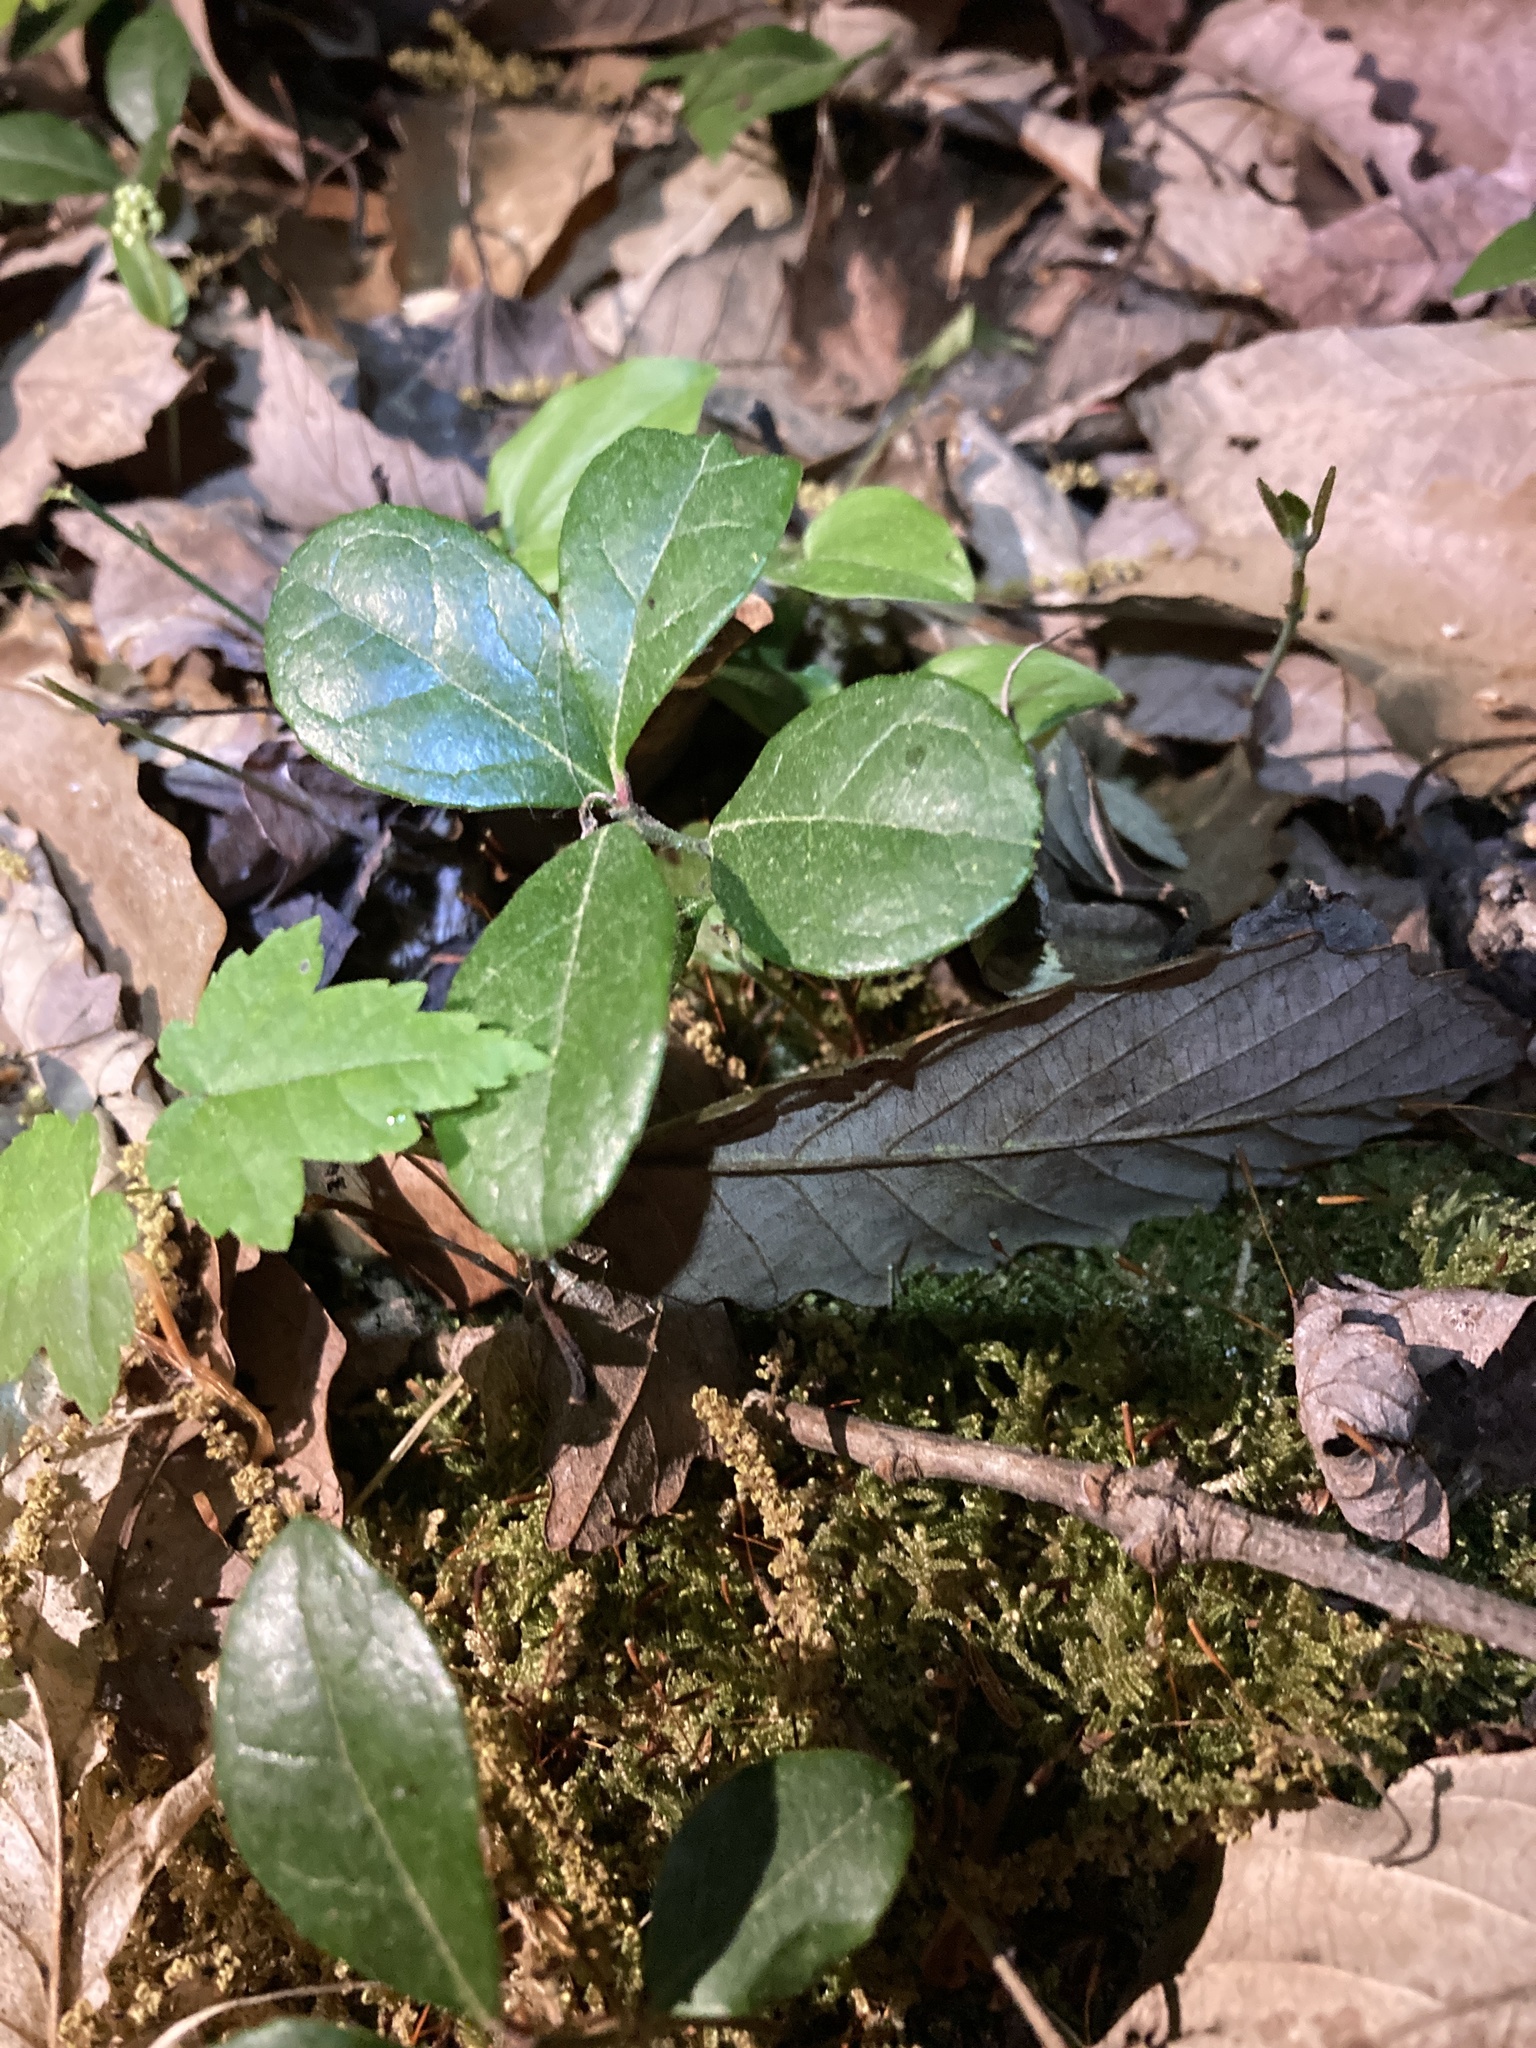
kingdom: Plantae
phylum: Tracheophyta
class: Magnoliopsida
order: Ericales
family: Ericaceae
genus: Gaultheria
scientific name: Gaultheria procumbens
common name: Checkerberry
